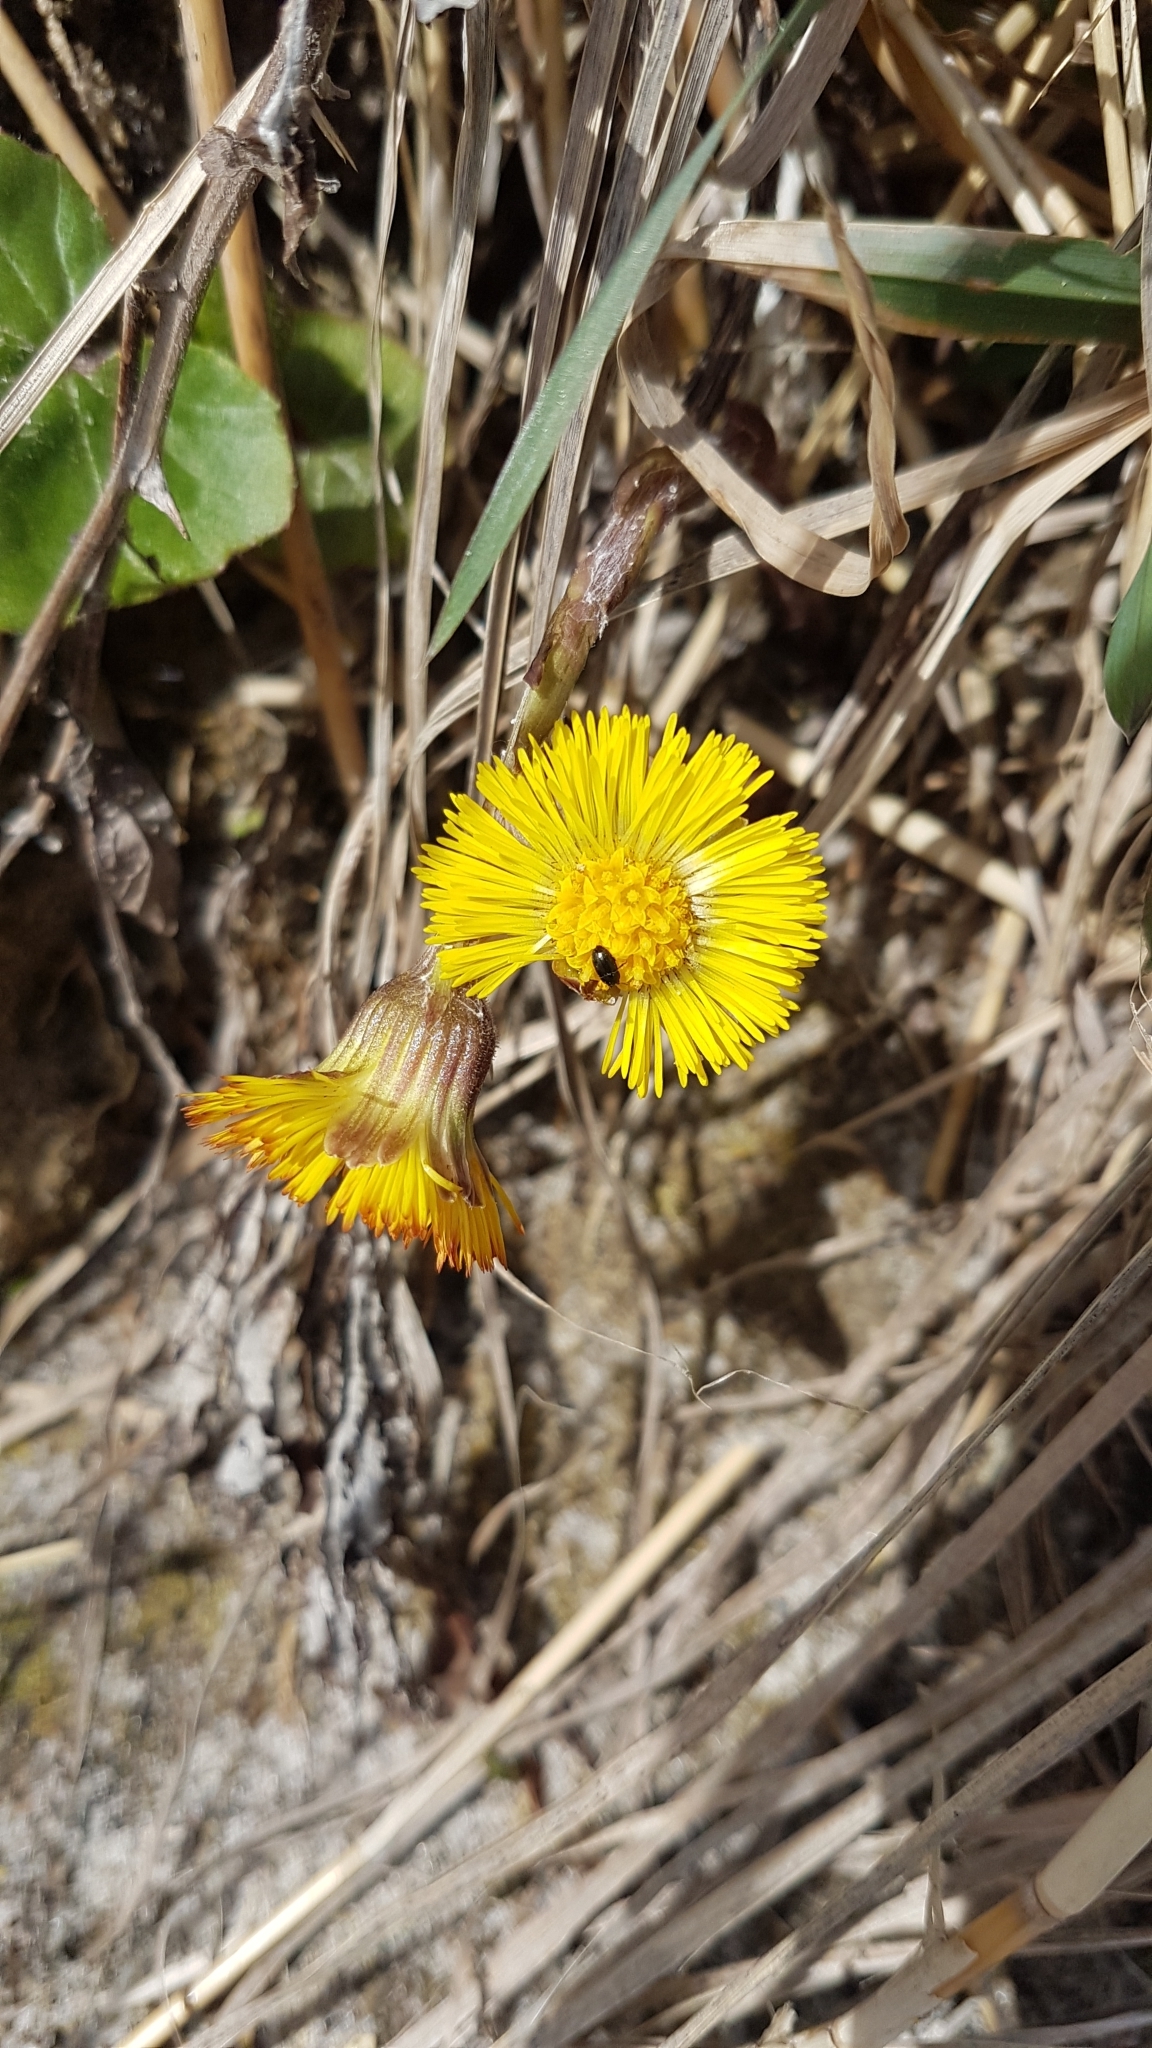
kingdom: Plantae
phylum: Tracheophyta
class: Magnoliopsida
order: Asterales
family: Asteraceae
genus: Tussilago
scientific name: Tussilago farfara
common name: Coltsfoot
